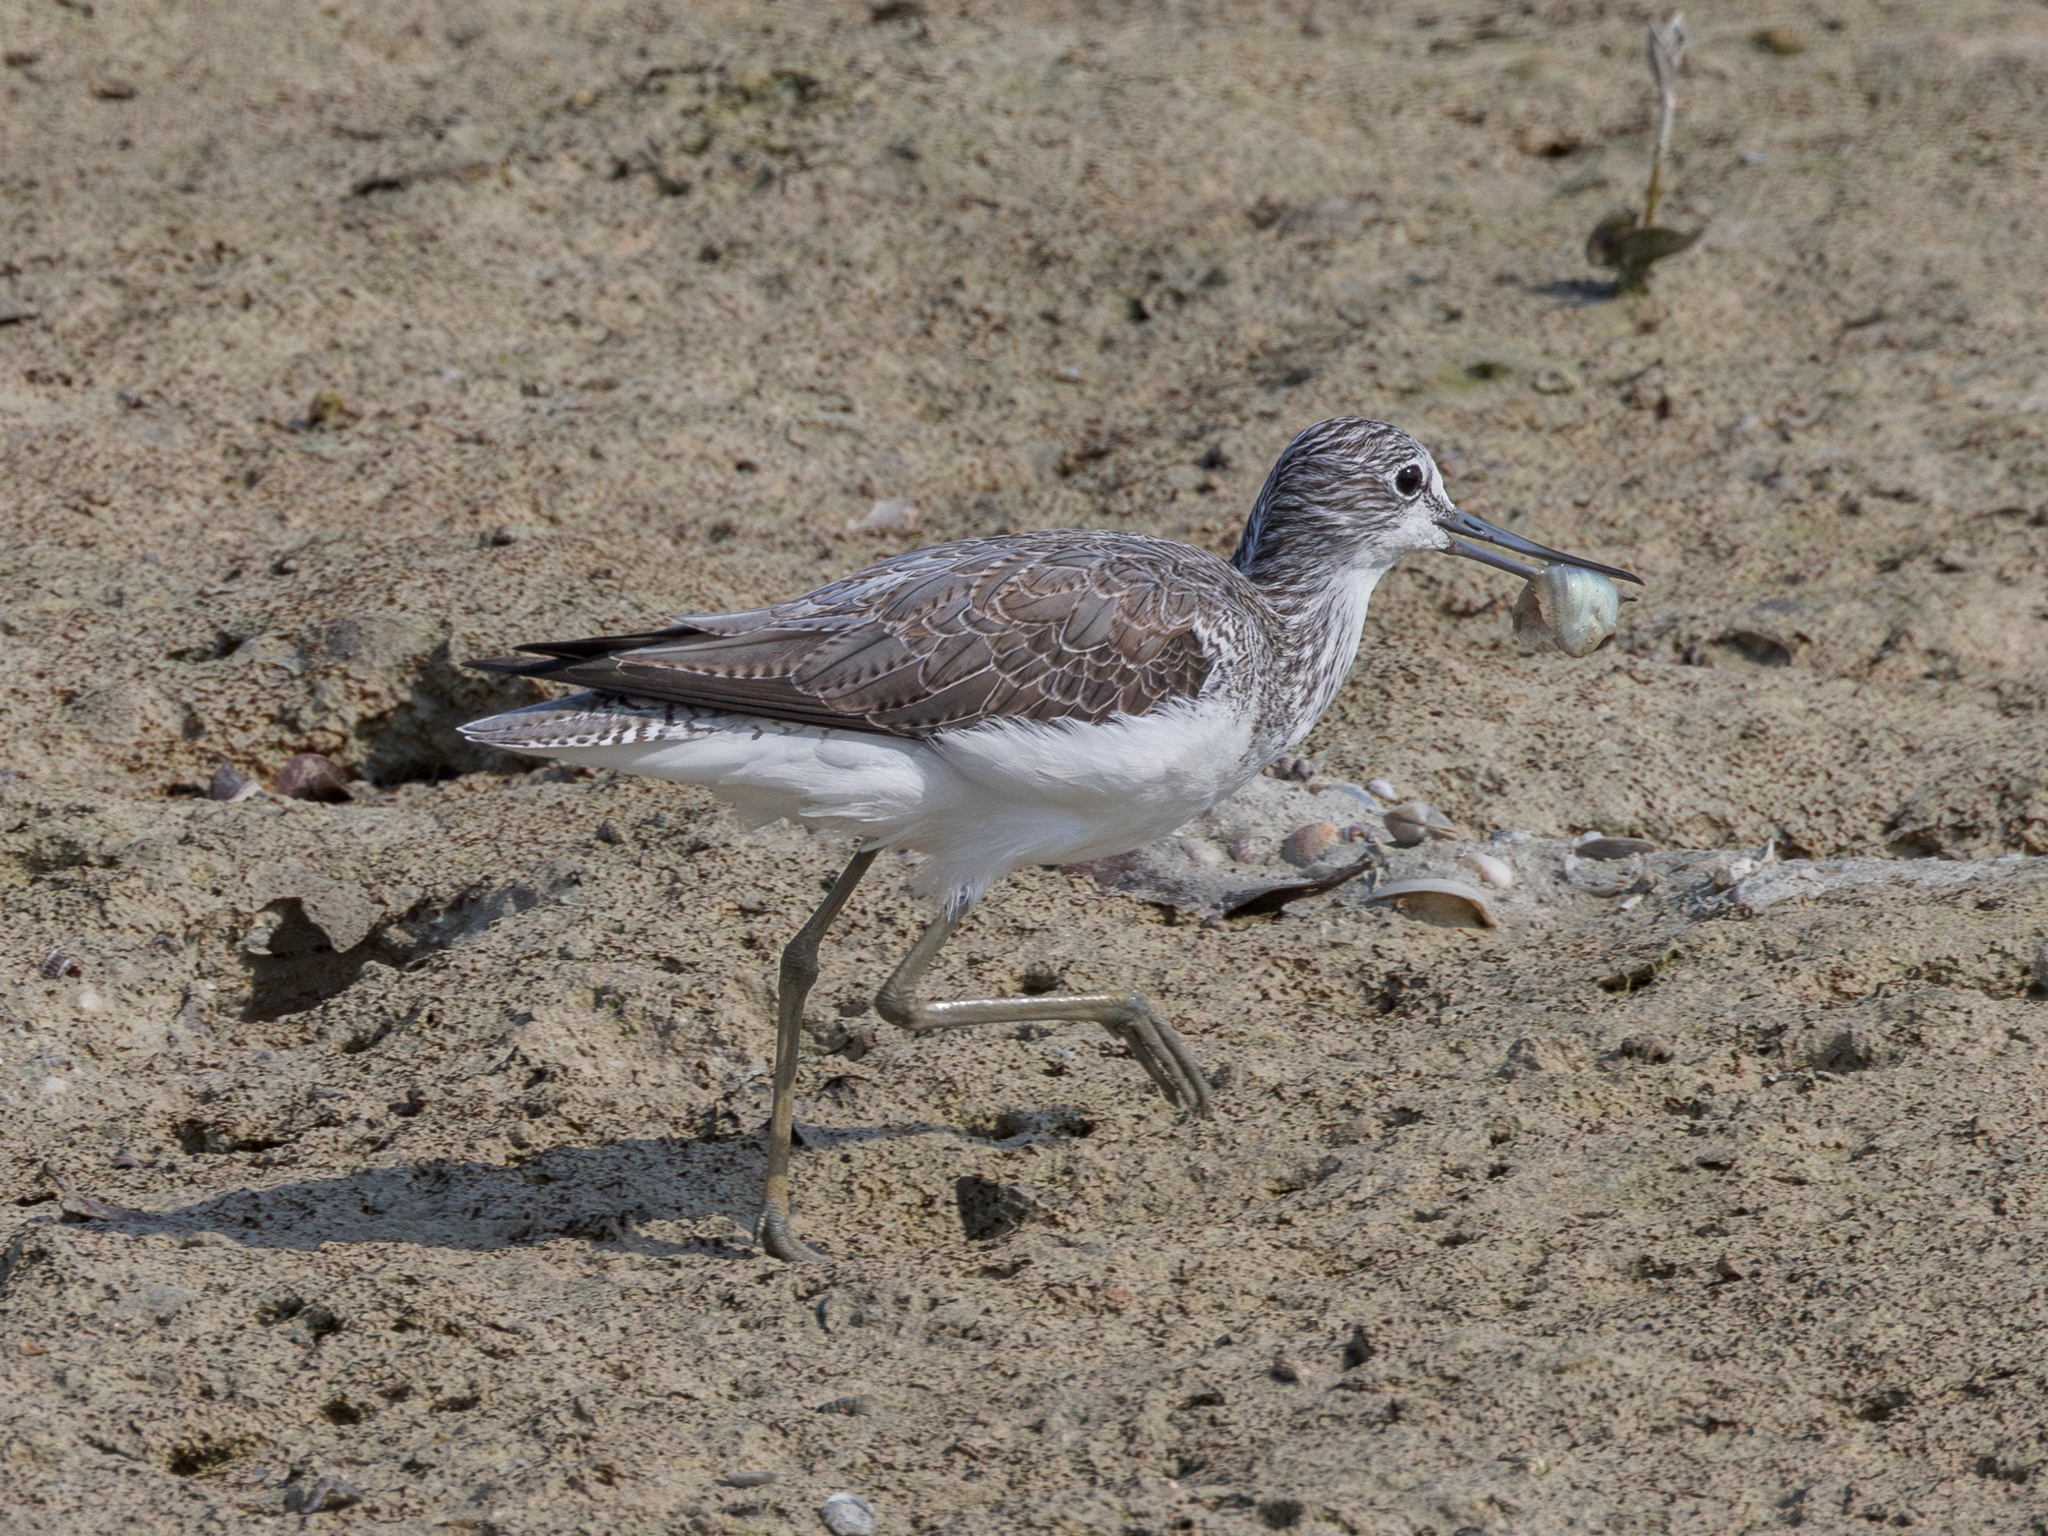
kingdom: Animalia
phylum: Chordata
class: Aves
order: Charadriiformes
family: Scolopacidae
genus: Tringa
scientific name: Tringa nebularia
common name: Common greenshank
